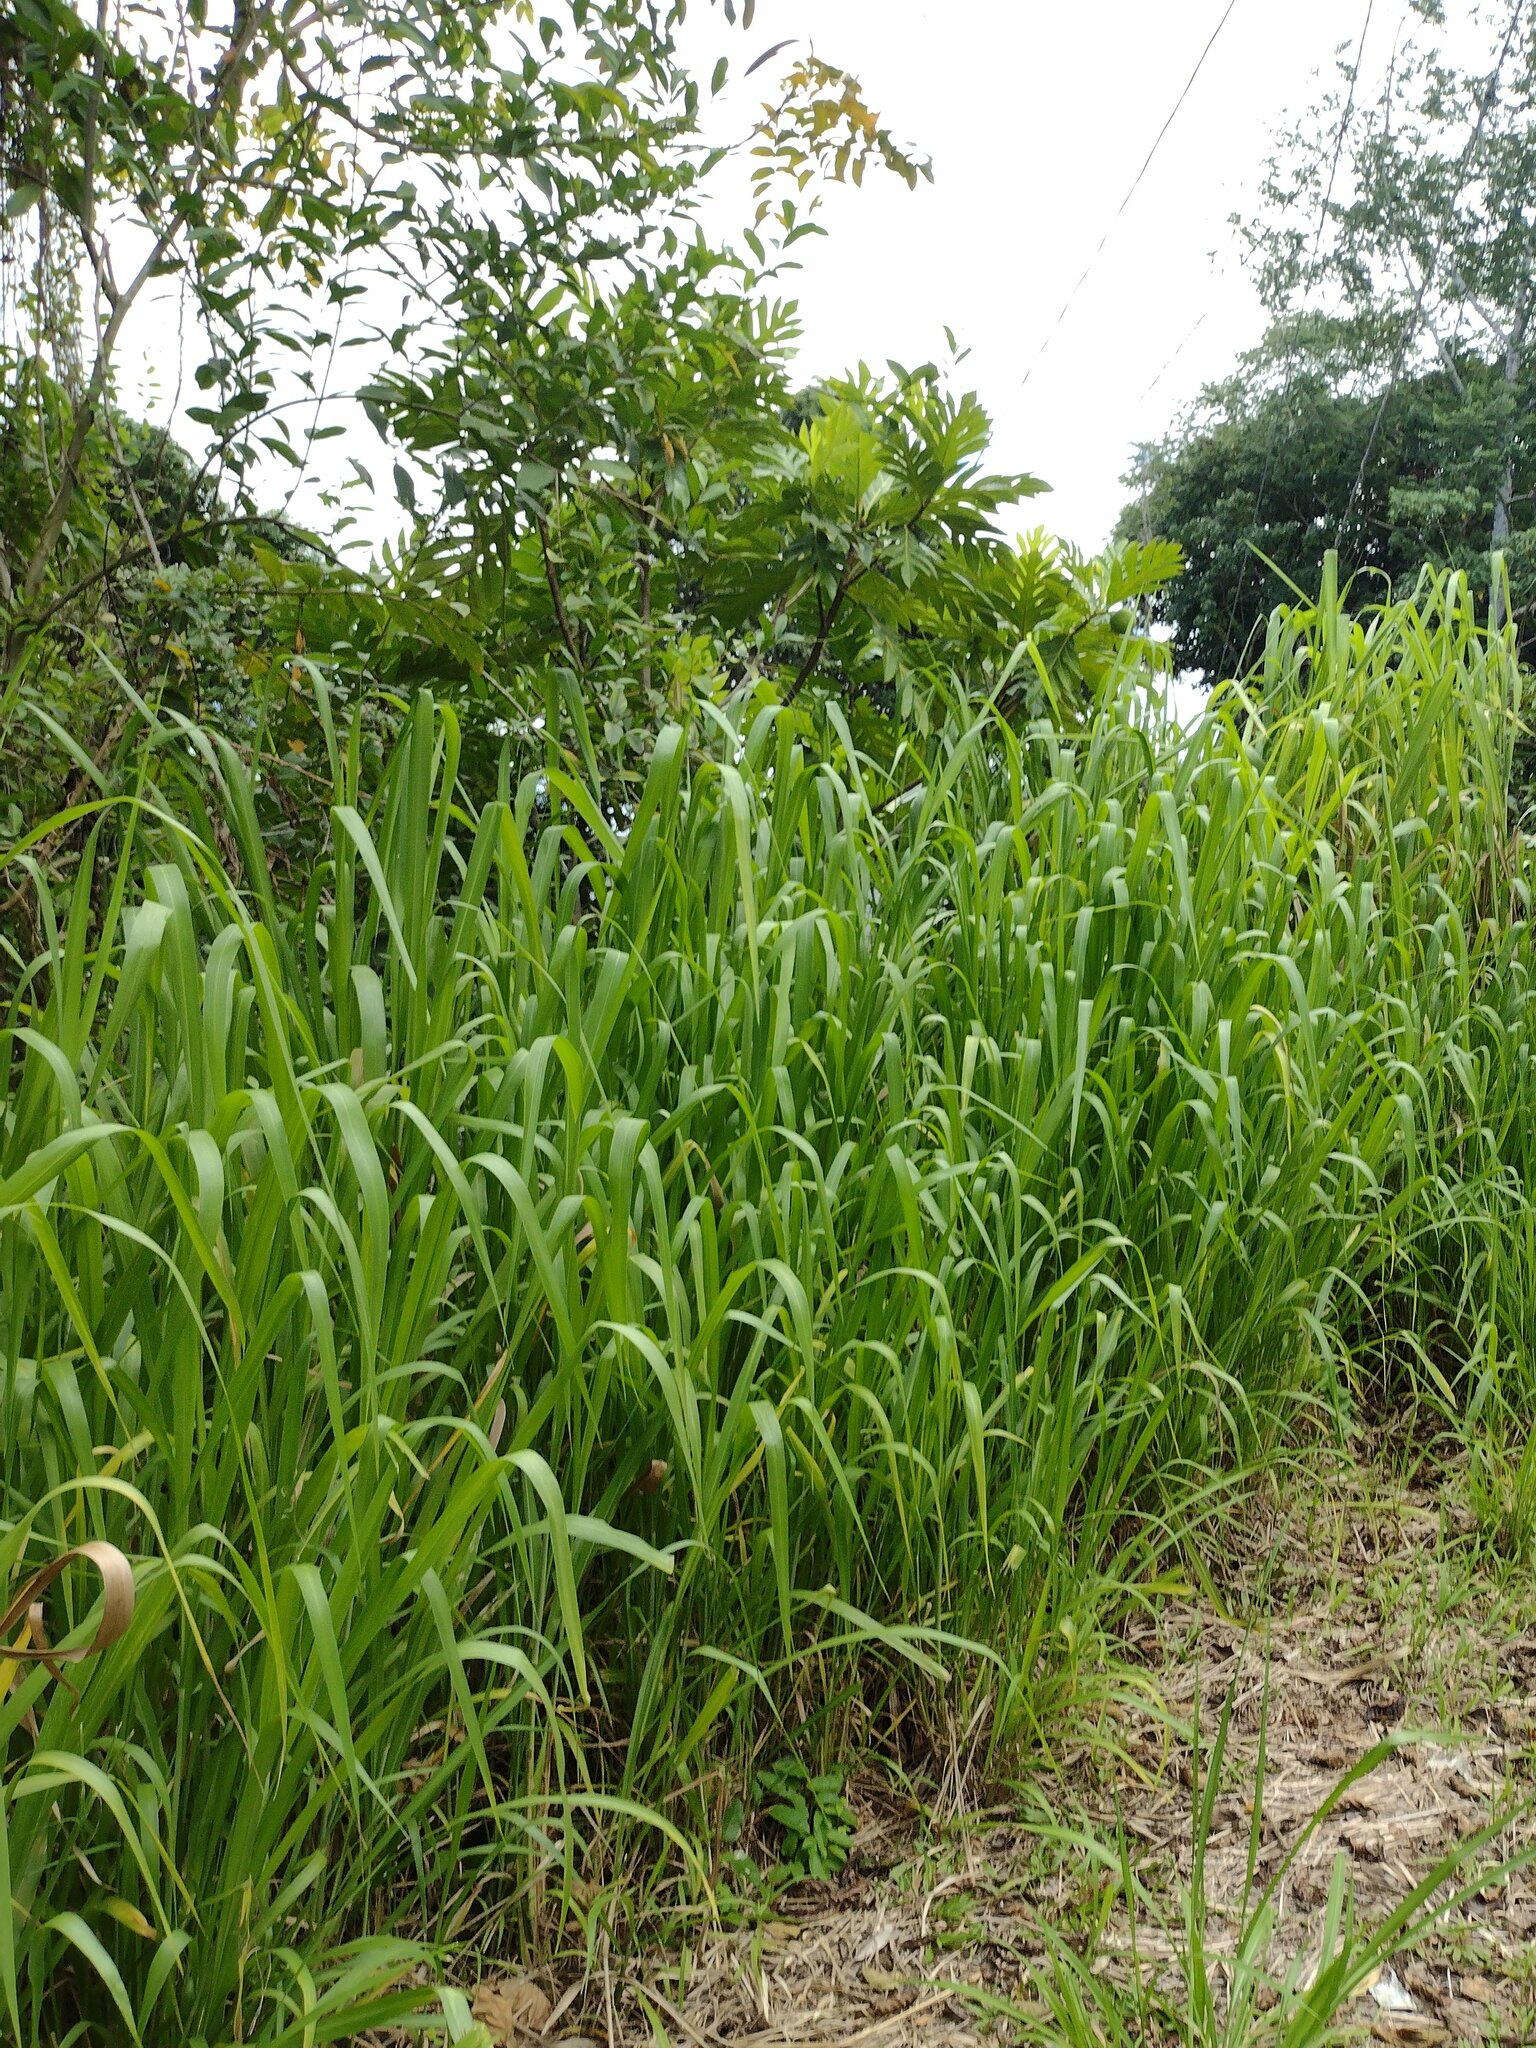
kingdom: Plantae
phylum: Tracheophyta
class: Liliopsida
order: Poales
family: Poaceae
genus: Megathyrsus
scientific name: Megathyrsus maximus
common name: Guineagrass
